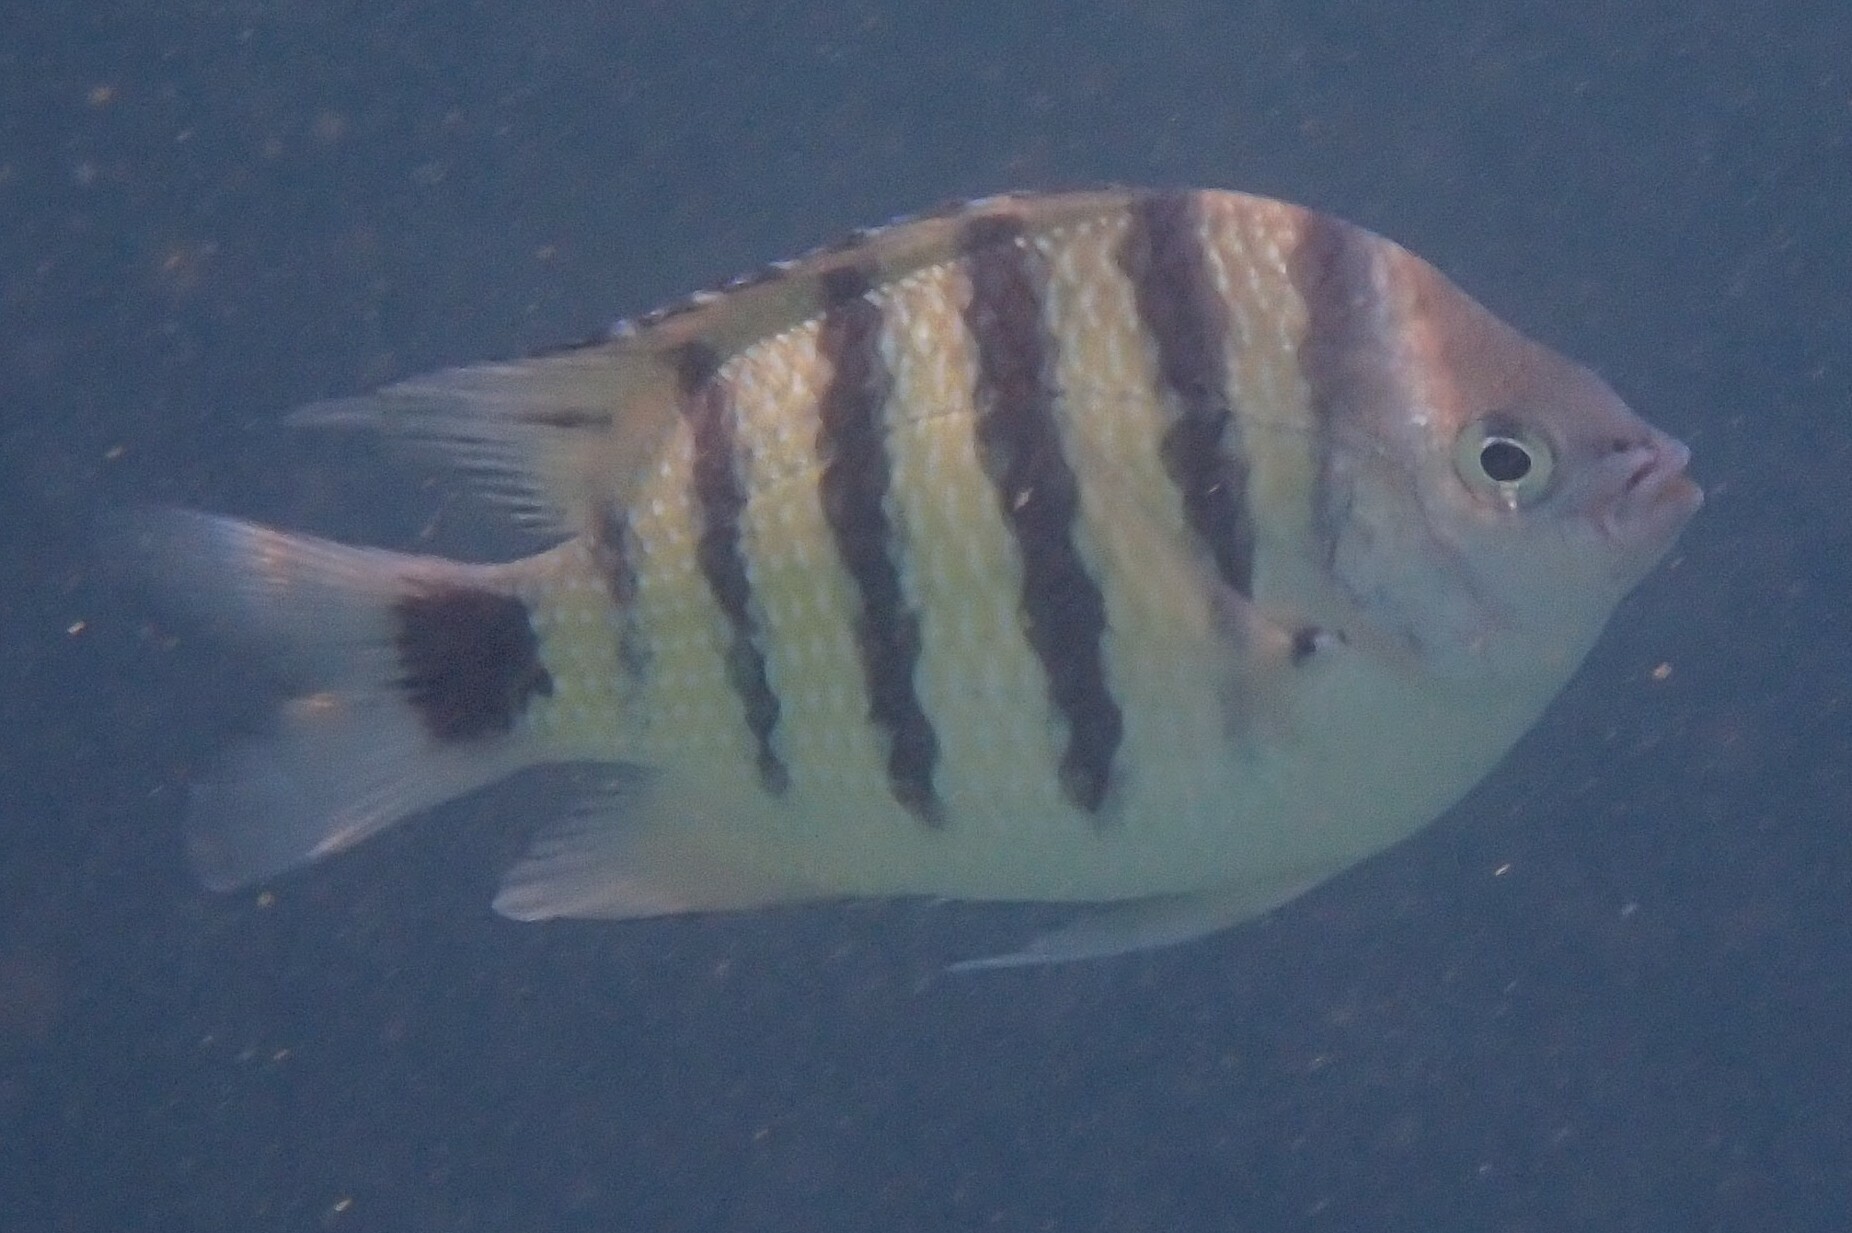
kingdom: Animalia
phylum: Chordata
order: Perciformes
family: Pomacentridae
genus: Abudefduf
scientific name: Abudefduf lorenzi
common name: Black-tail sergeant
